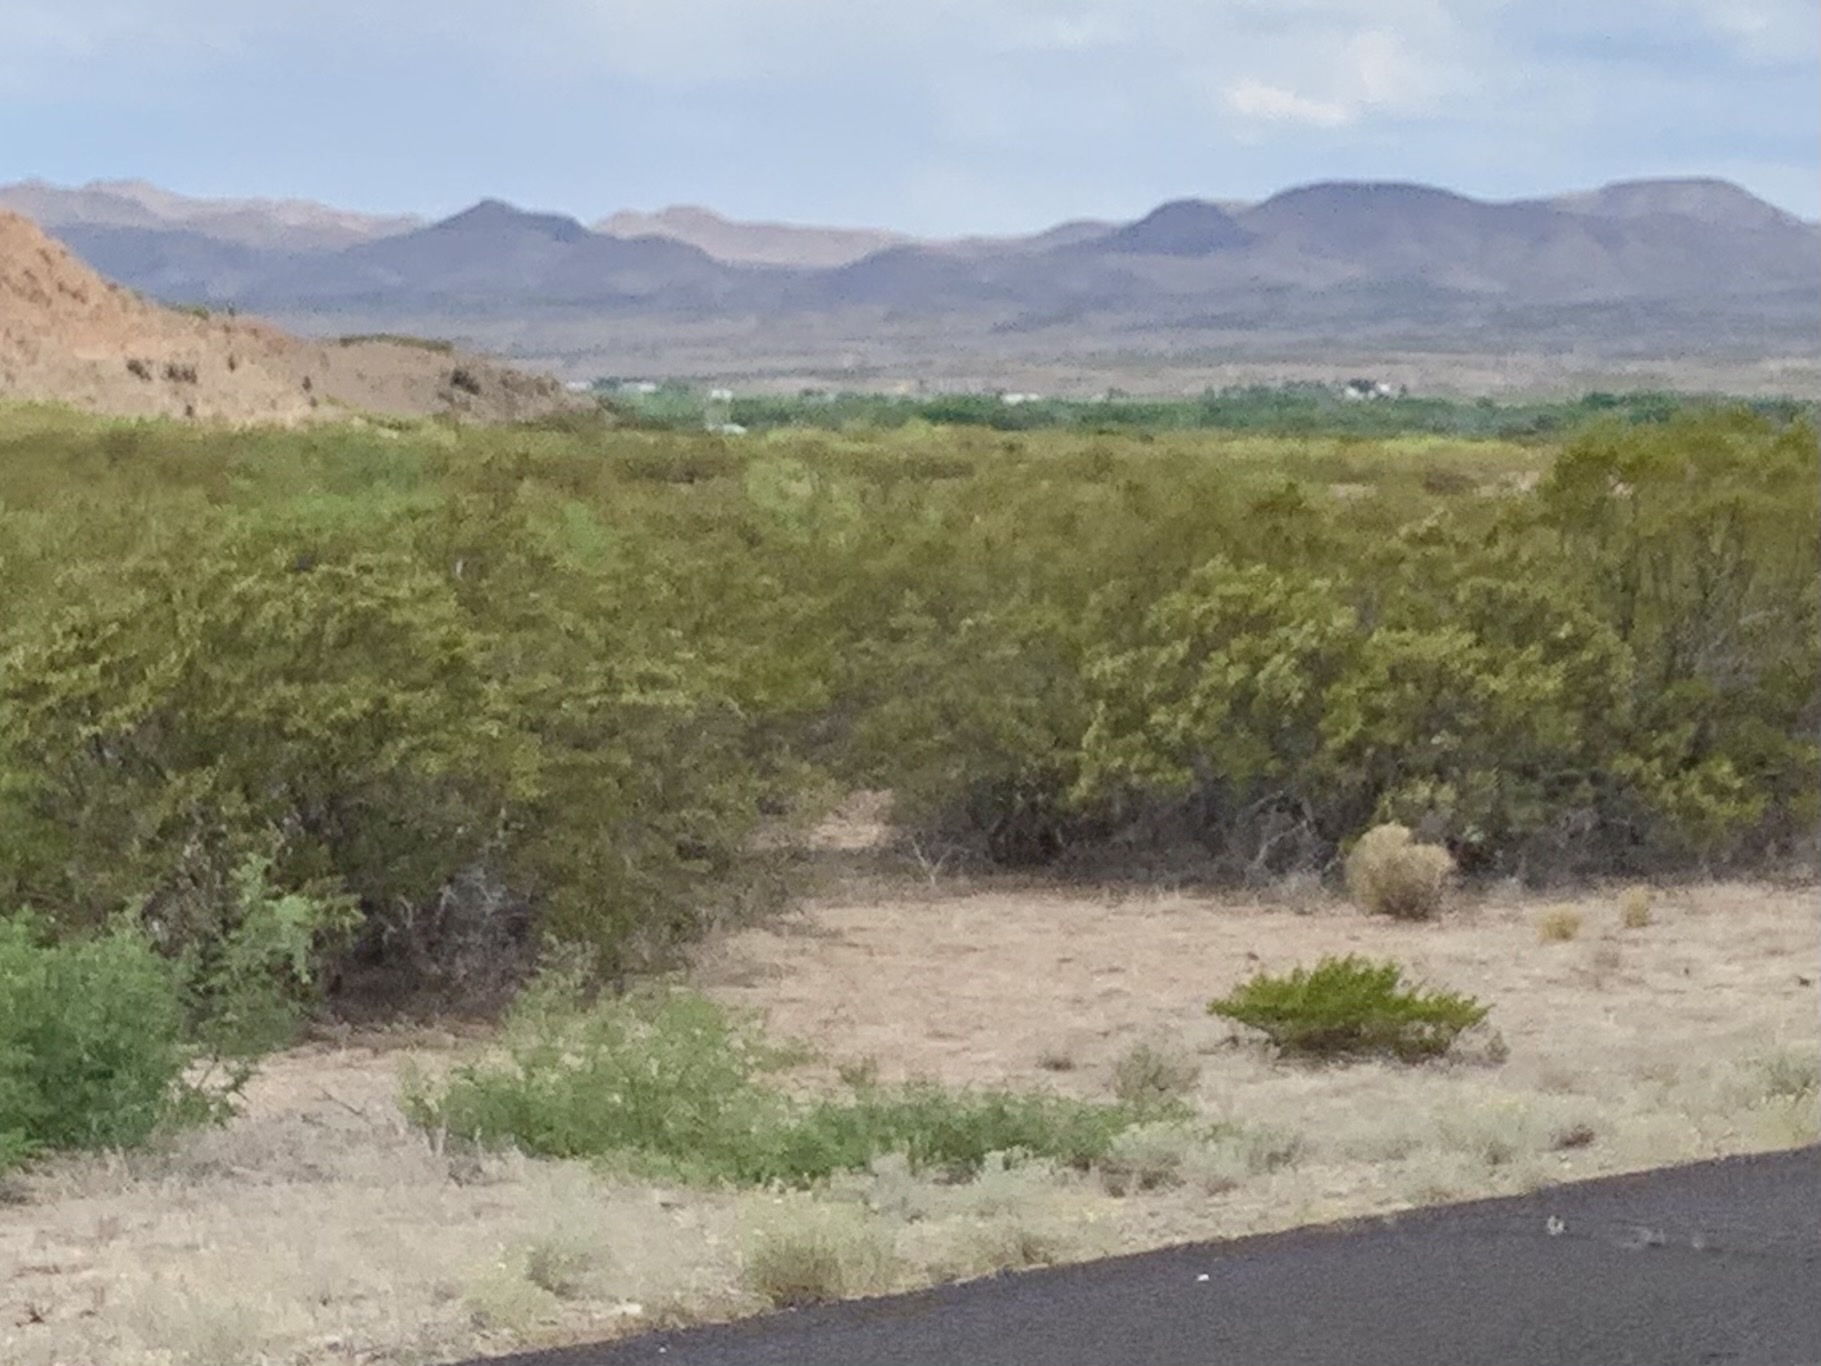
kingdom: Plantae
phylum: Tracheophyta
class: Magnoliopsida
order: Zygophyllales
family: Zygophyllaceae
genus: Larrea
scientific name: Larrea tridentata
